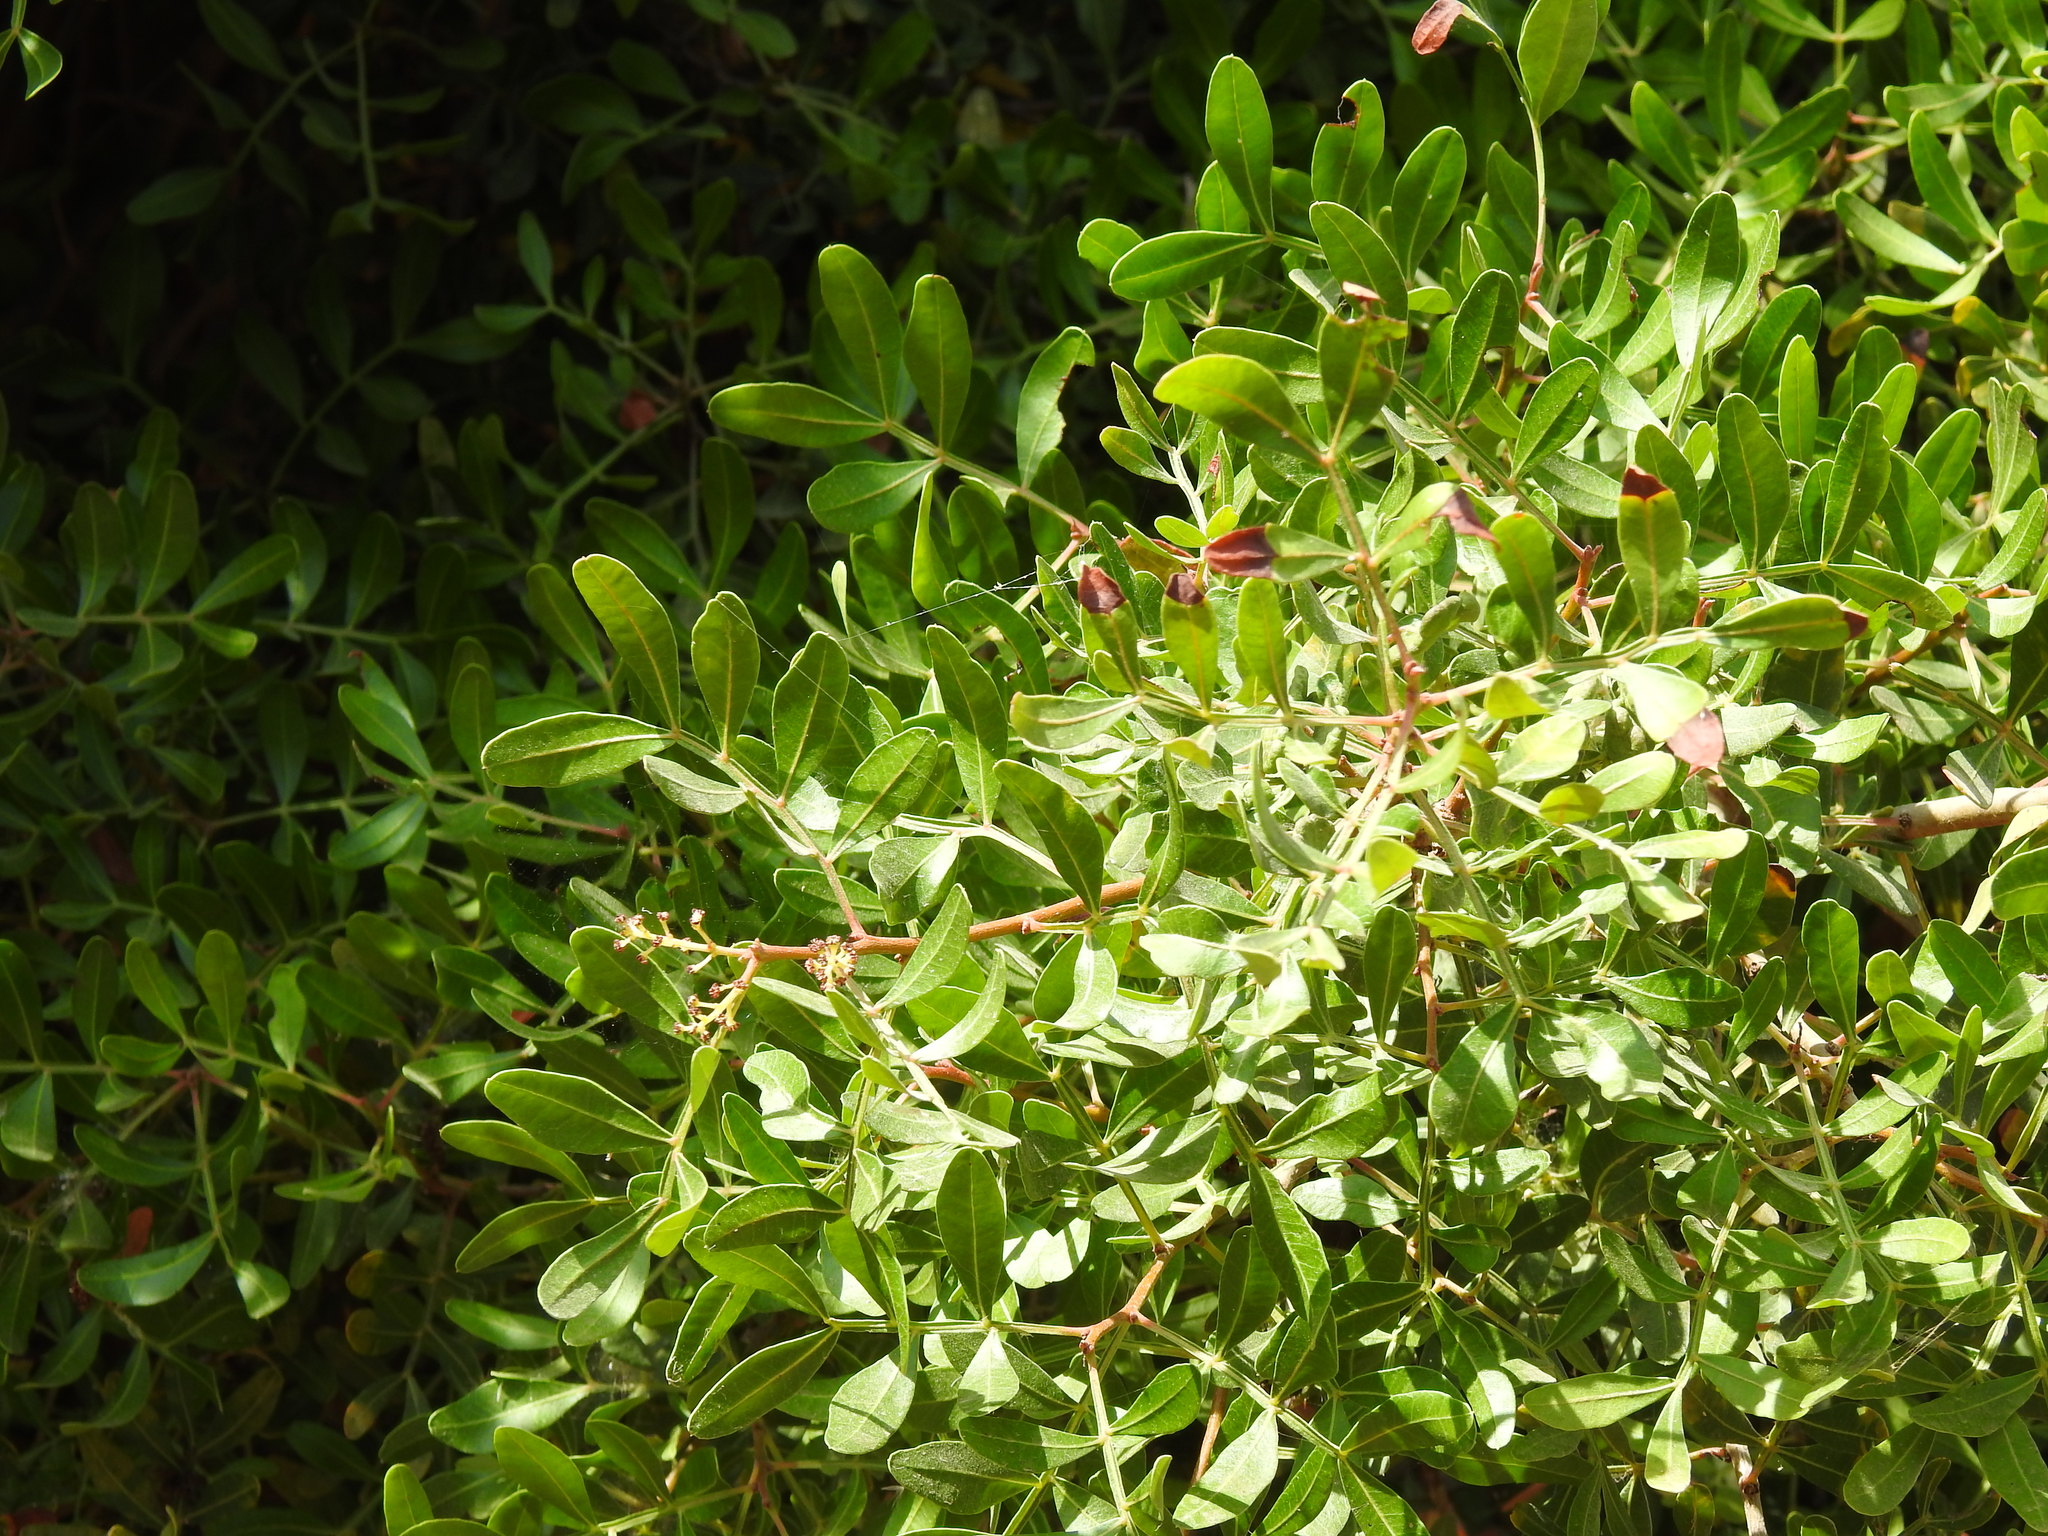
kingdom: Plantae
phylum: Tracheophyta
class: Magnoliopsida
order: Sapindales
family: Anacardiaceae
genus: Pistacia
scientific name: Pistacia lentiscus
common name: Lentisk
